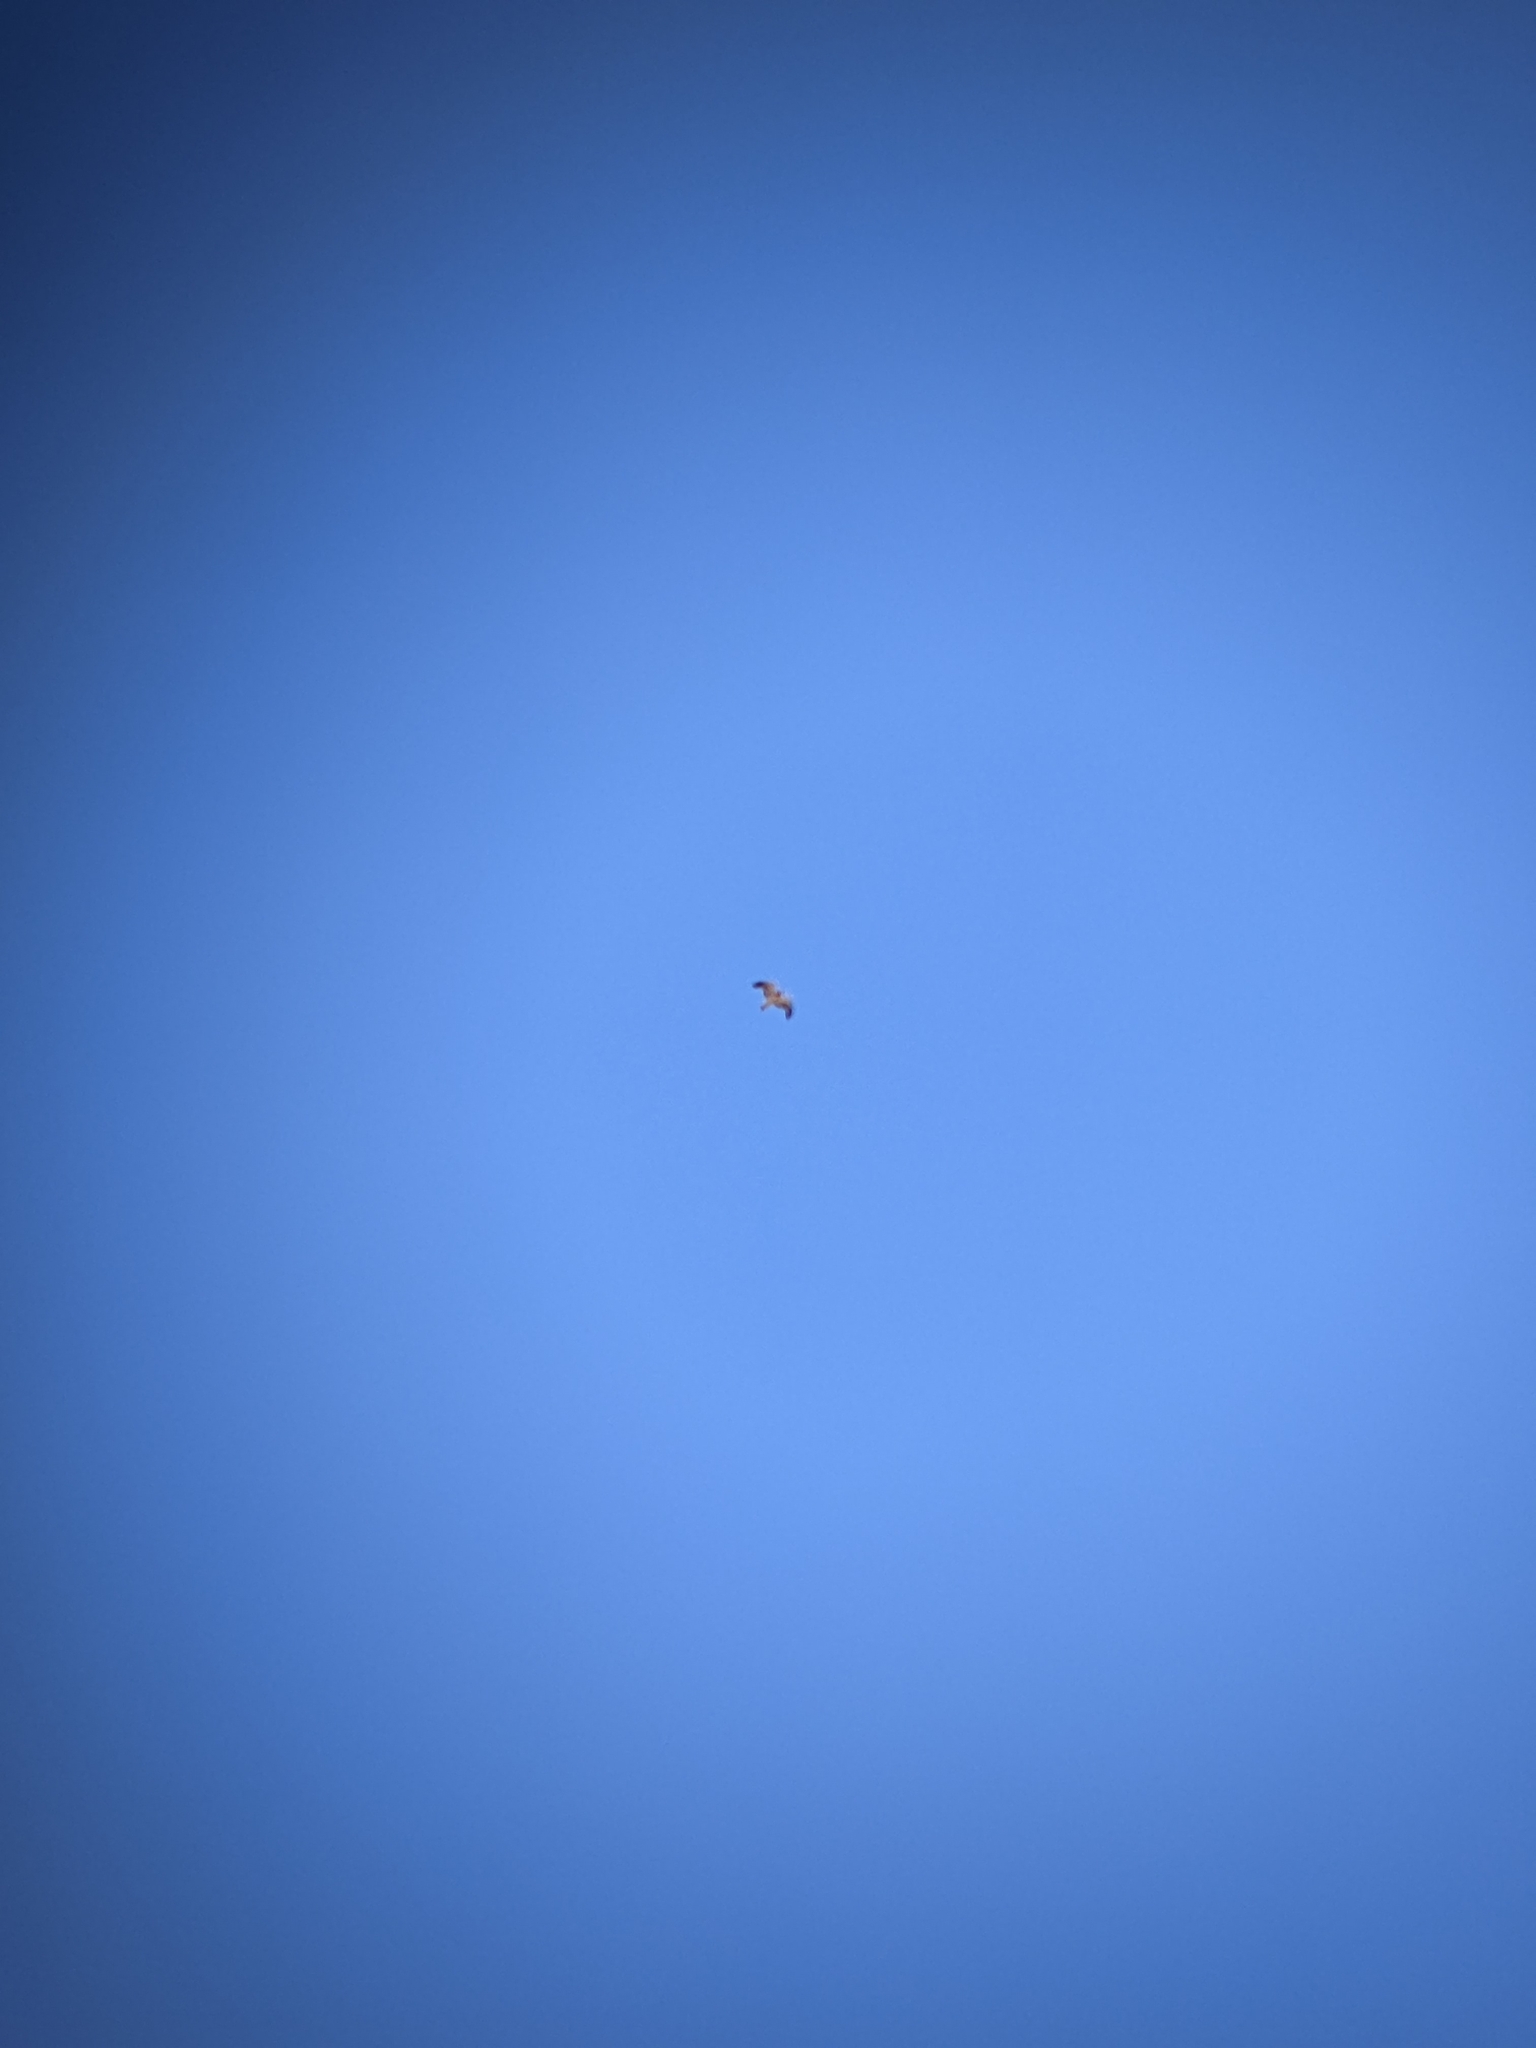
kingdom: Animalia
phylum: Chordata
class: Aves
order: Accipitriformes
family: Accipitridae
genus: Hieraaetus
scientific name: Hieraaetus pennatus
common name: Booted eagle
